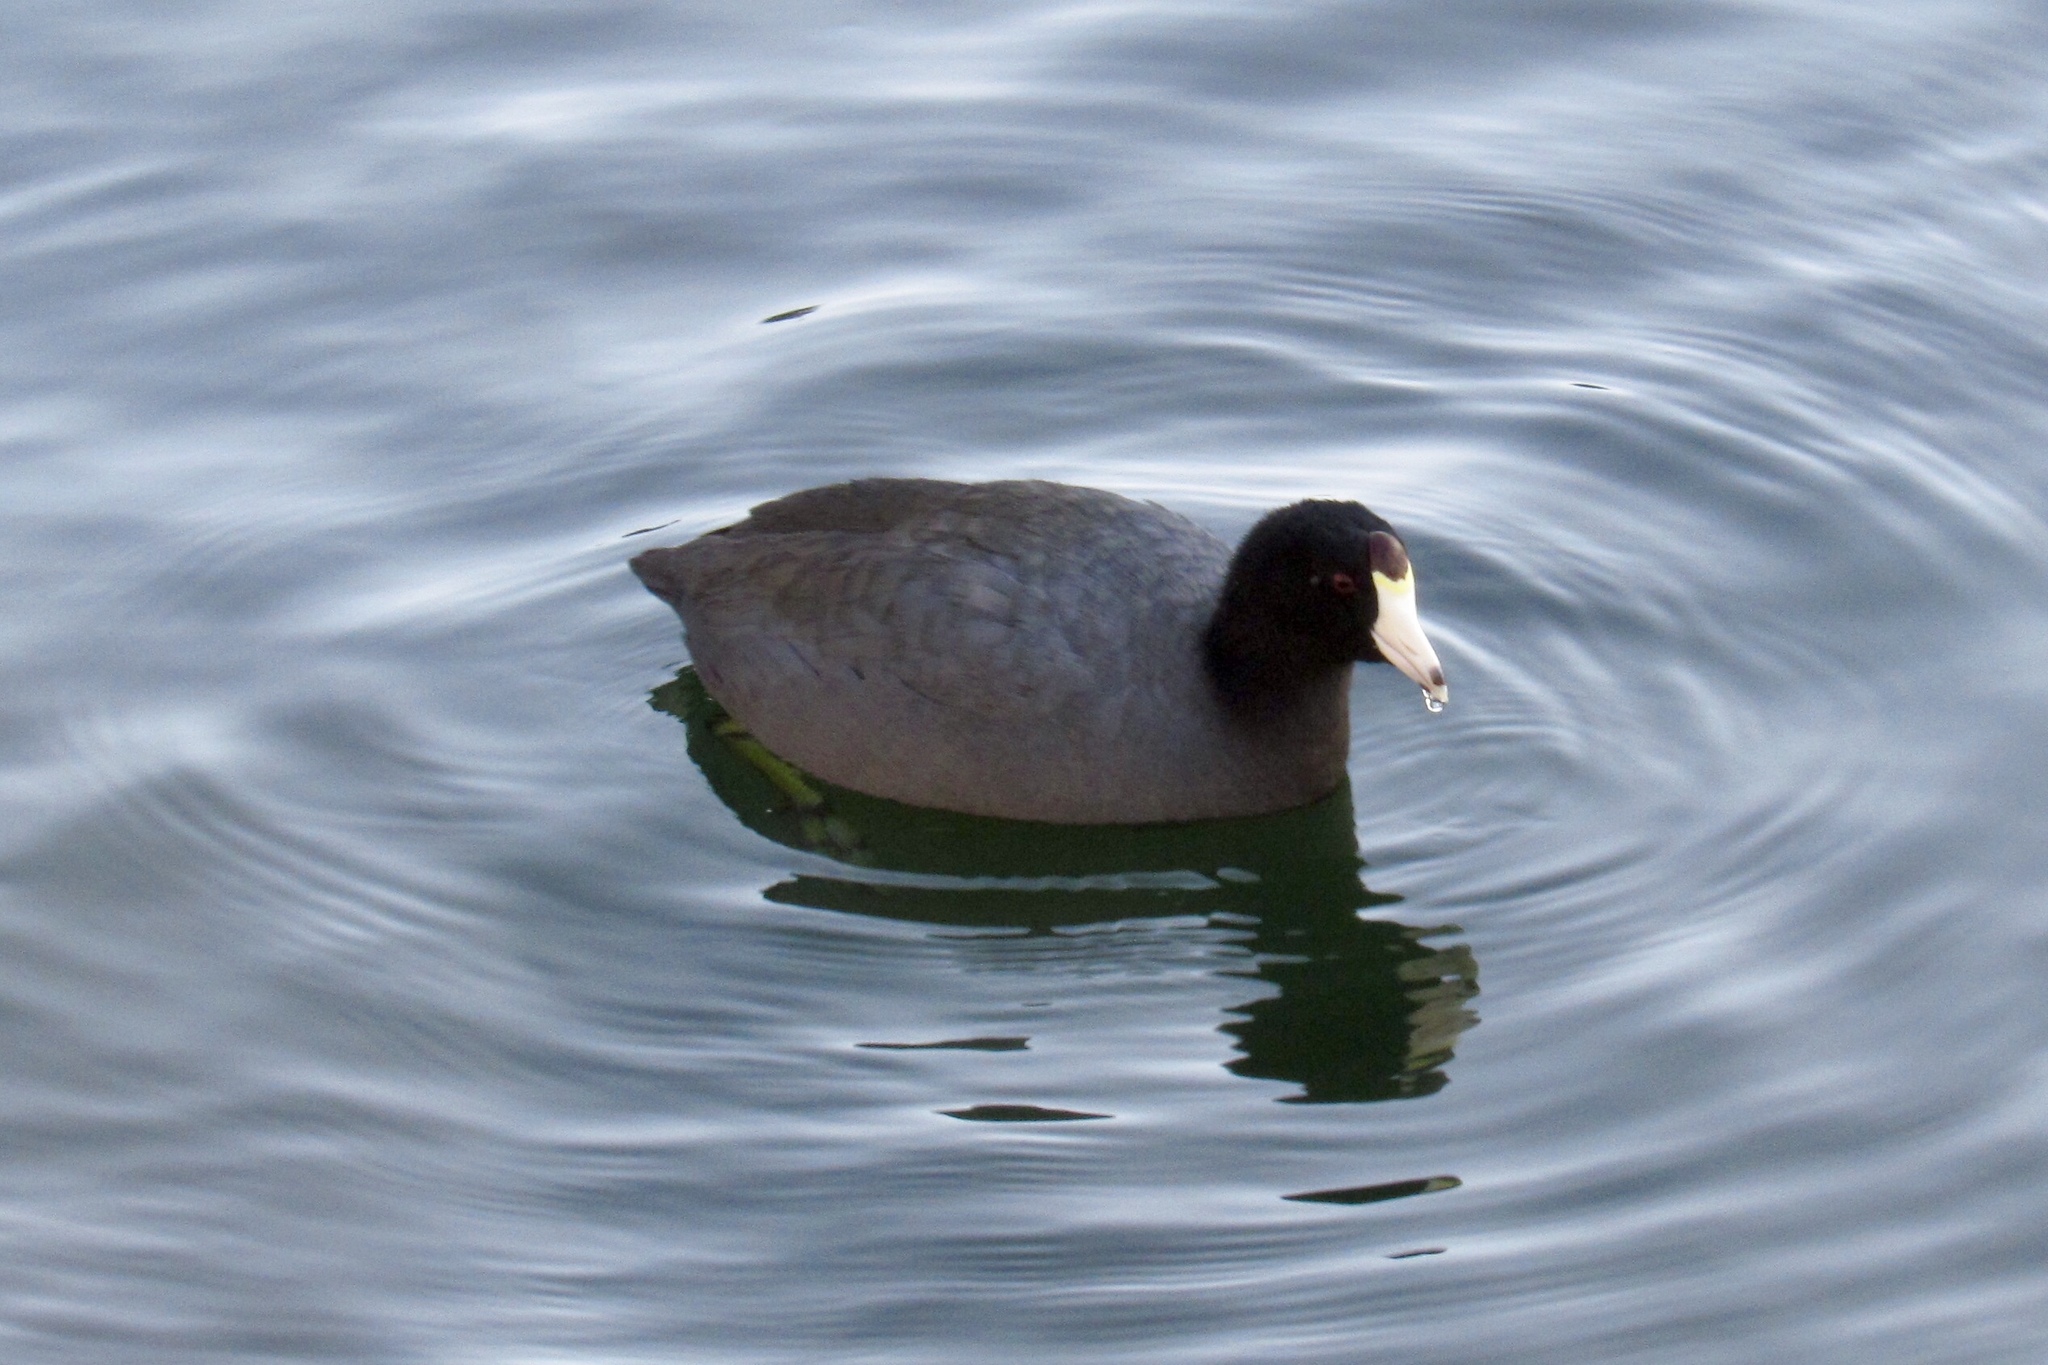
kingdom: Animalia
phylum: Chordata
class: Aves
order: Gruiformes
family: Rallidae
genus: Fulica
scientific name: Fulica americana
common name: American coot
